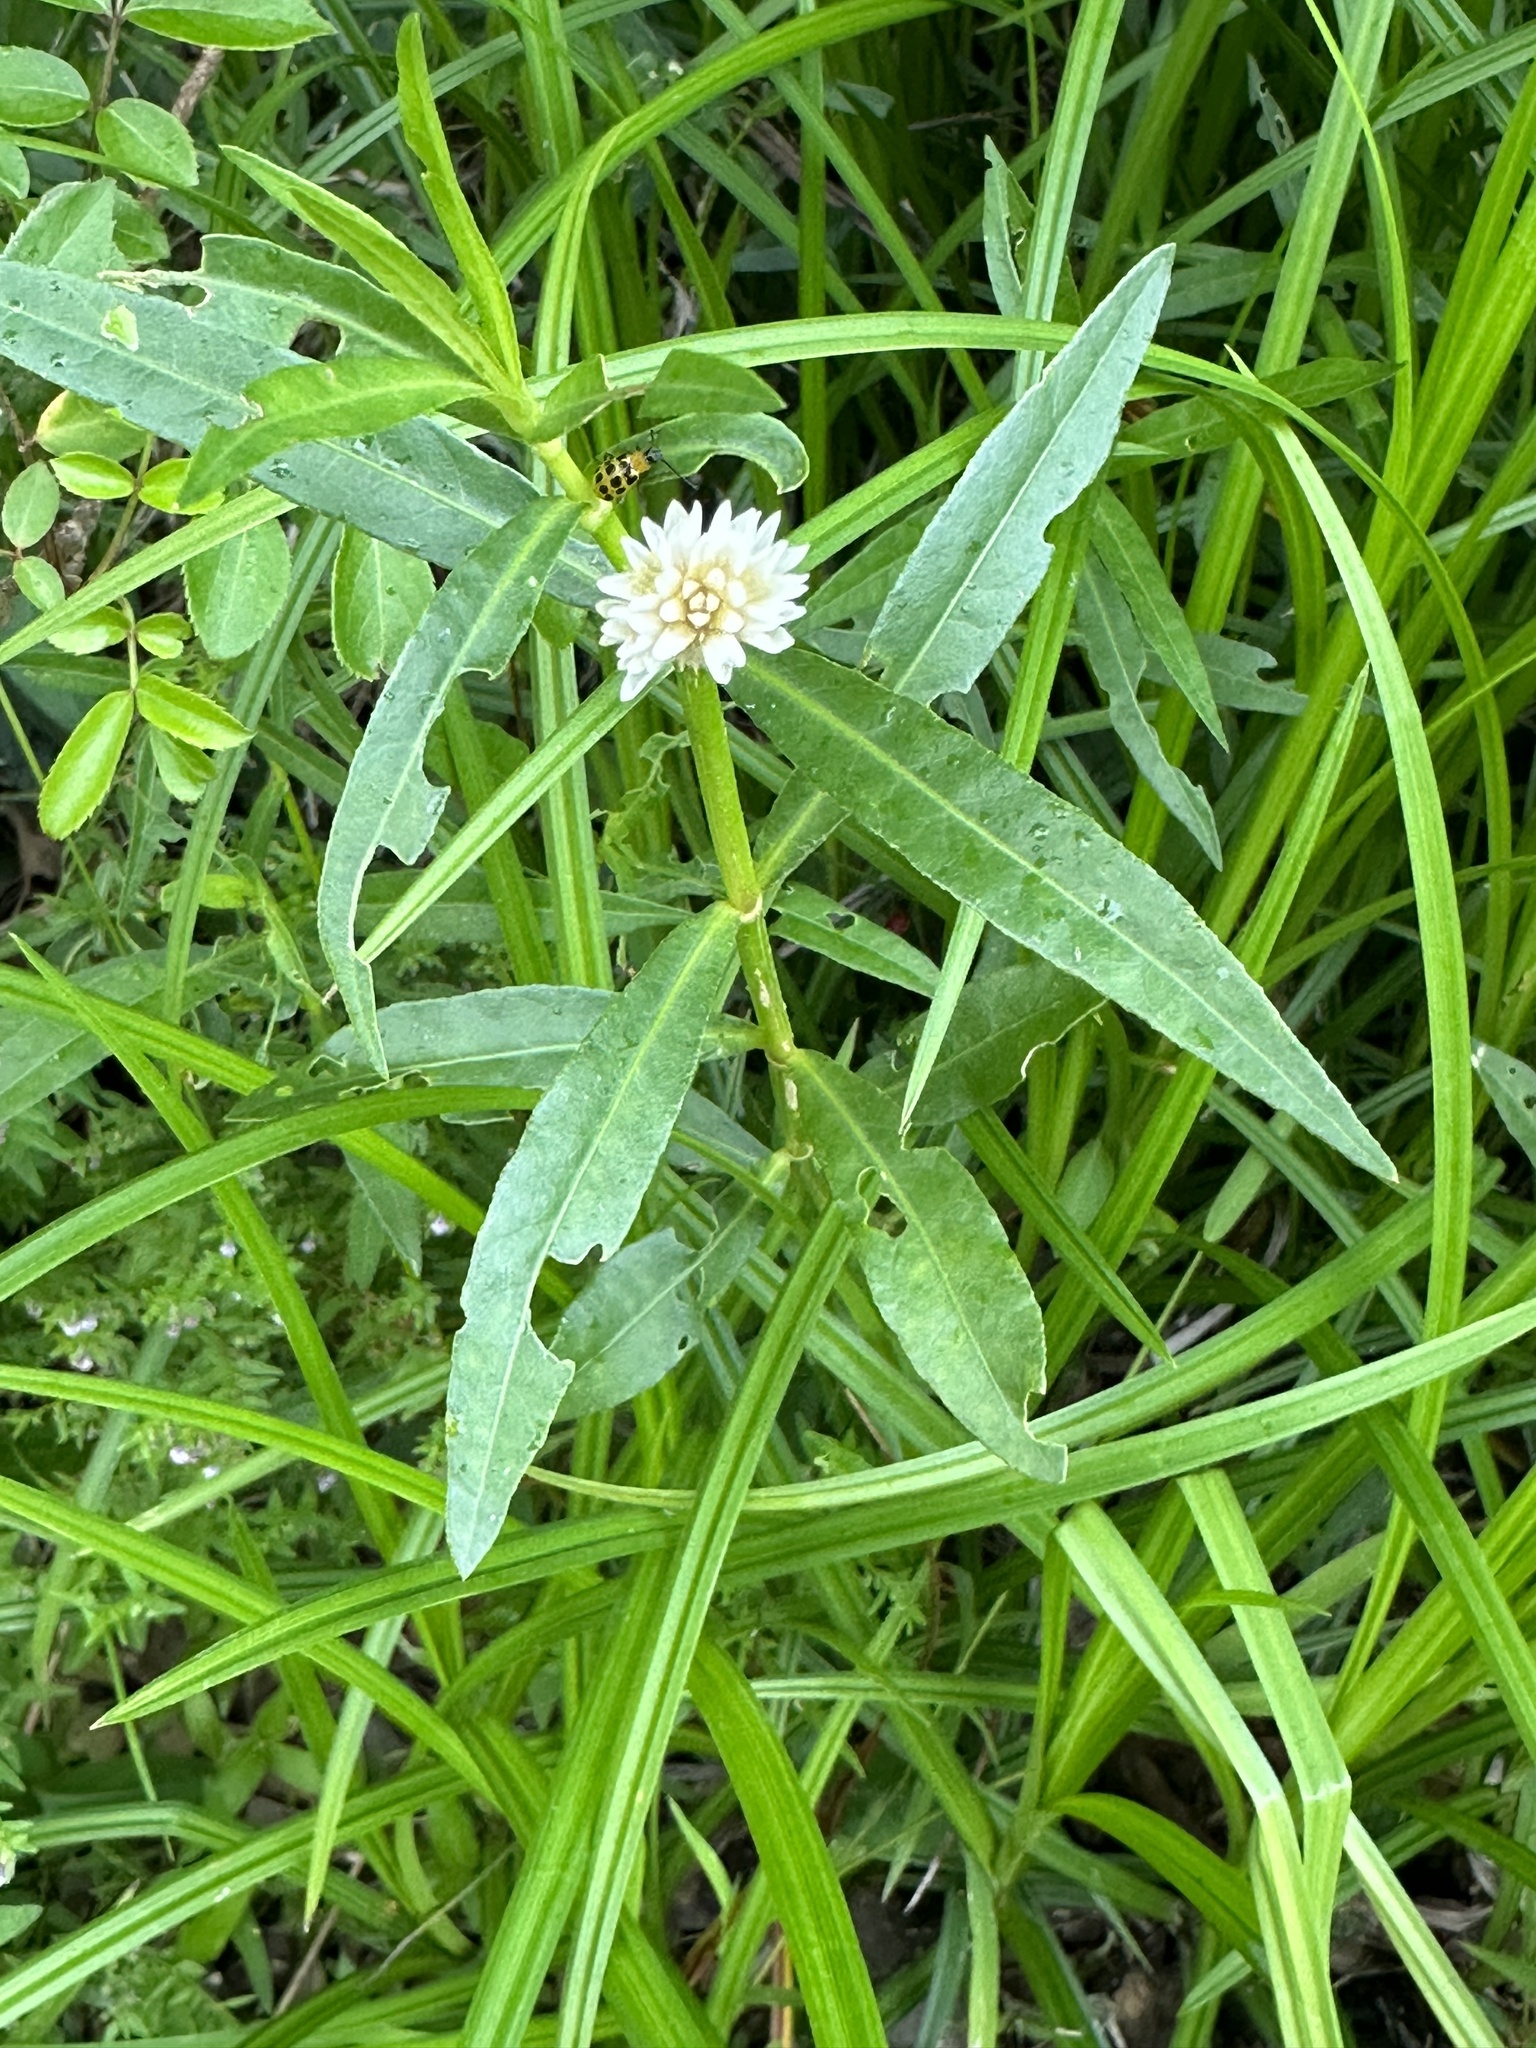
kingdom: Plantae
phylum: Tracheophyta
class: Magnoliopsida
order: Caryophyllales
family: Amaranthaceae
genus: Alternanthera
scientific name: Alternanthera philoxeroides
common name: Alligatorweed
